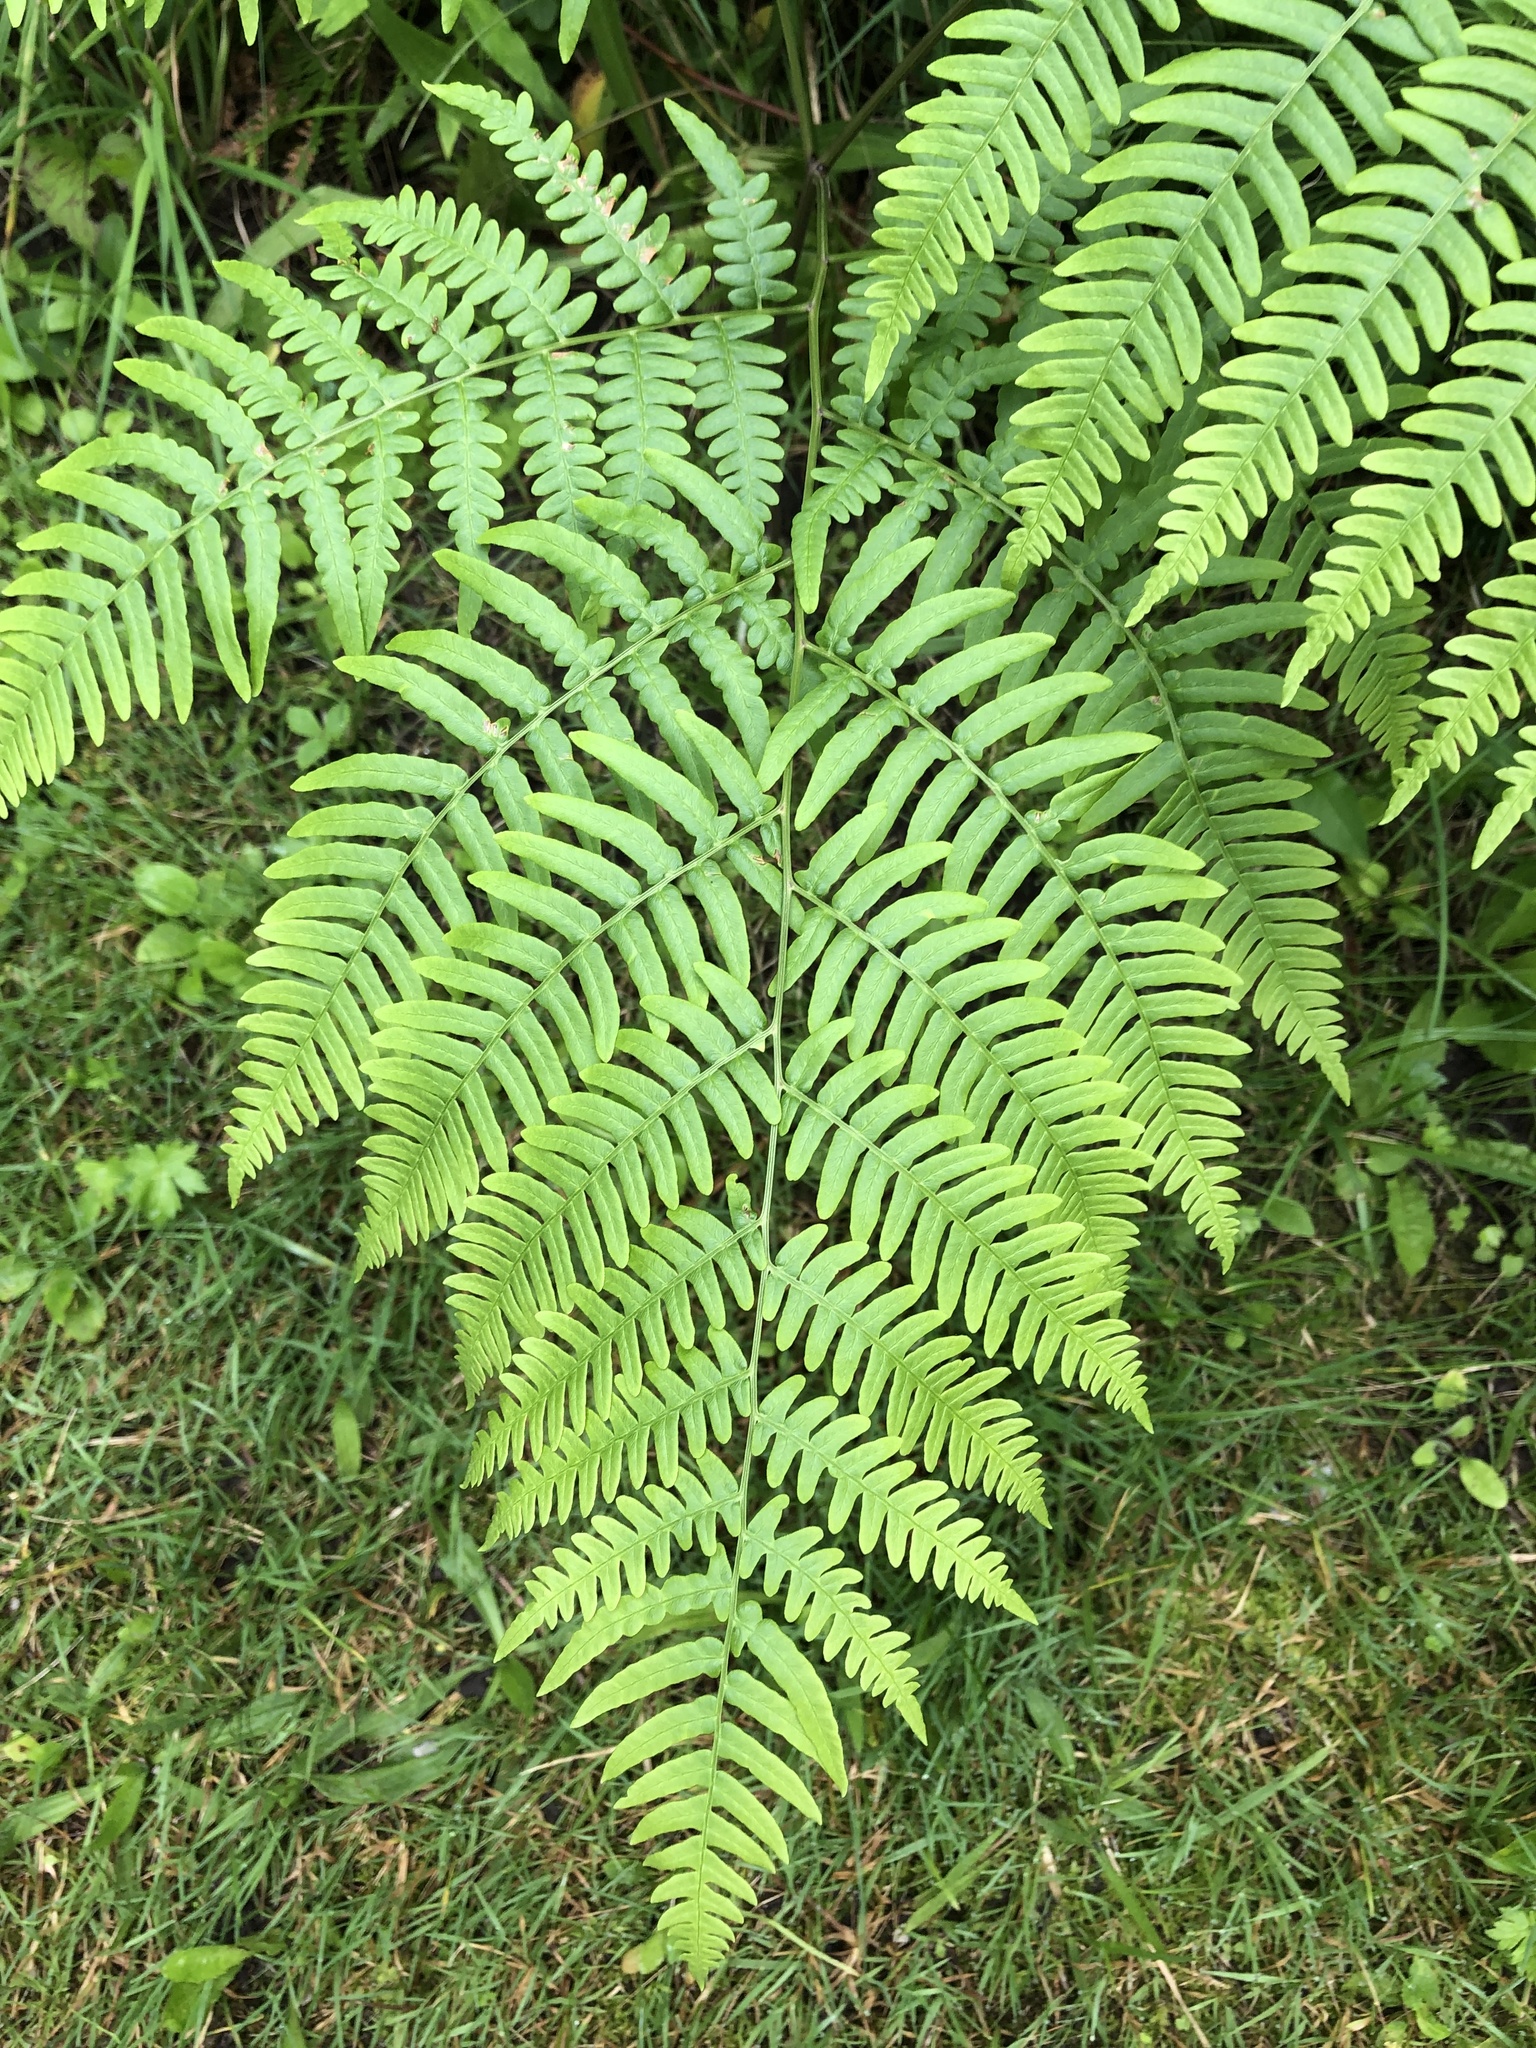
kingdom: Plantae
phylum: Tracheophyta
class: Polypodiopsida
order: Polypodiales
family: Dennstaedtiaceae
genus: Pteridium
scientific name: Pteridium aquilinum
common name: Bracken
